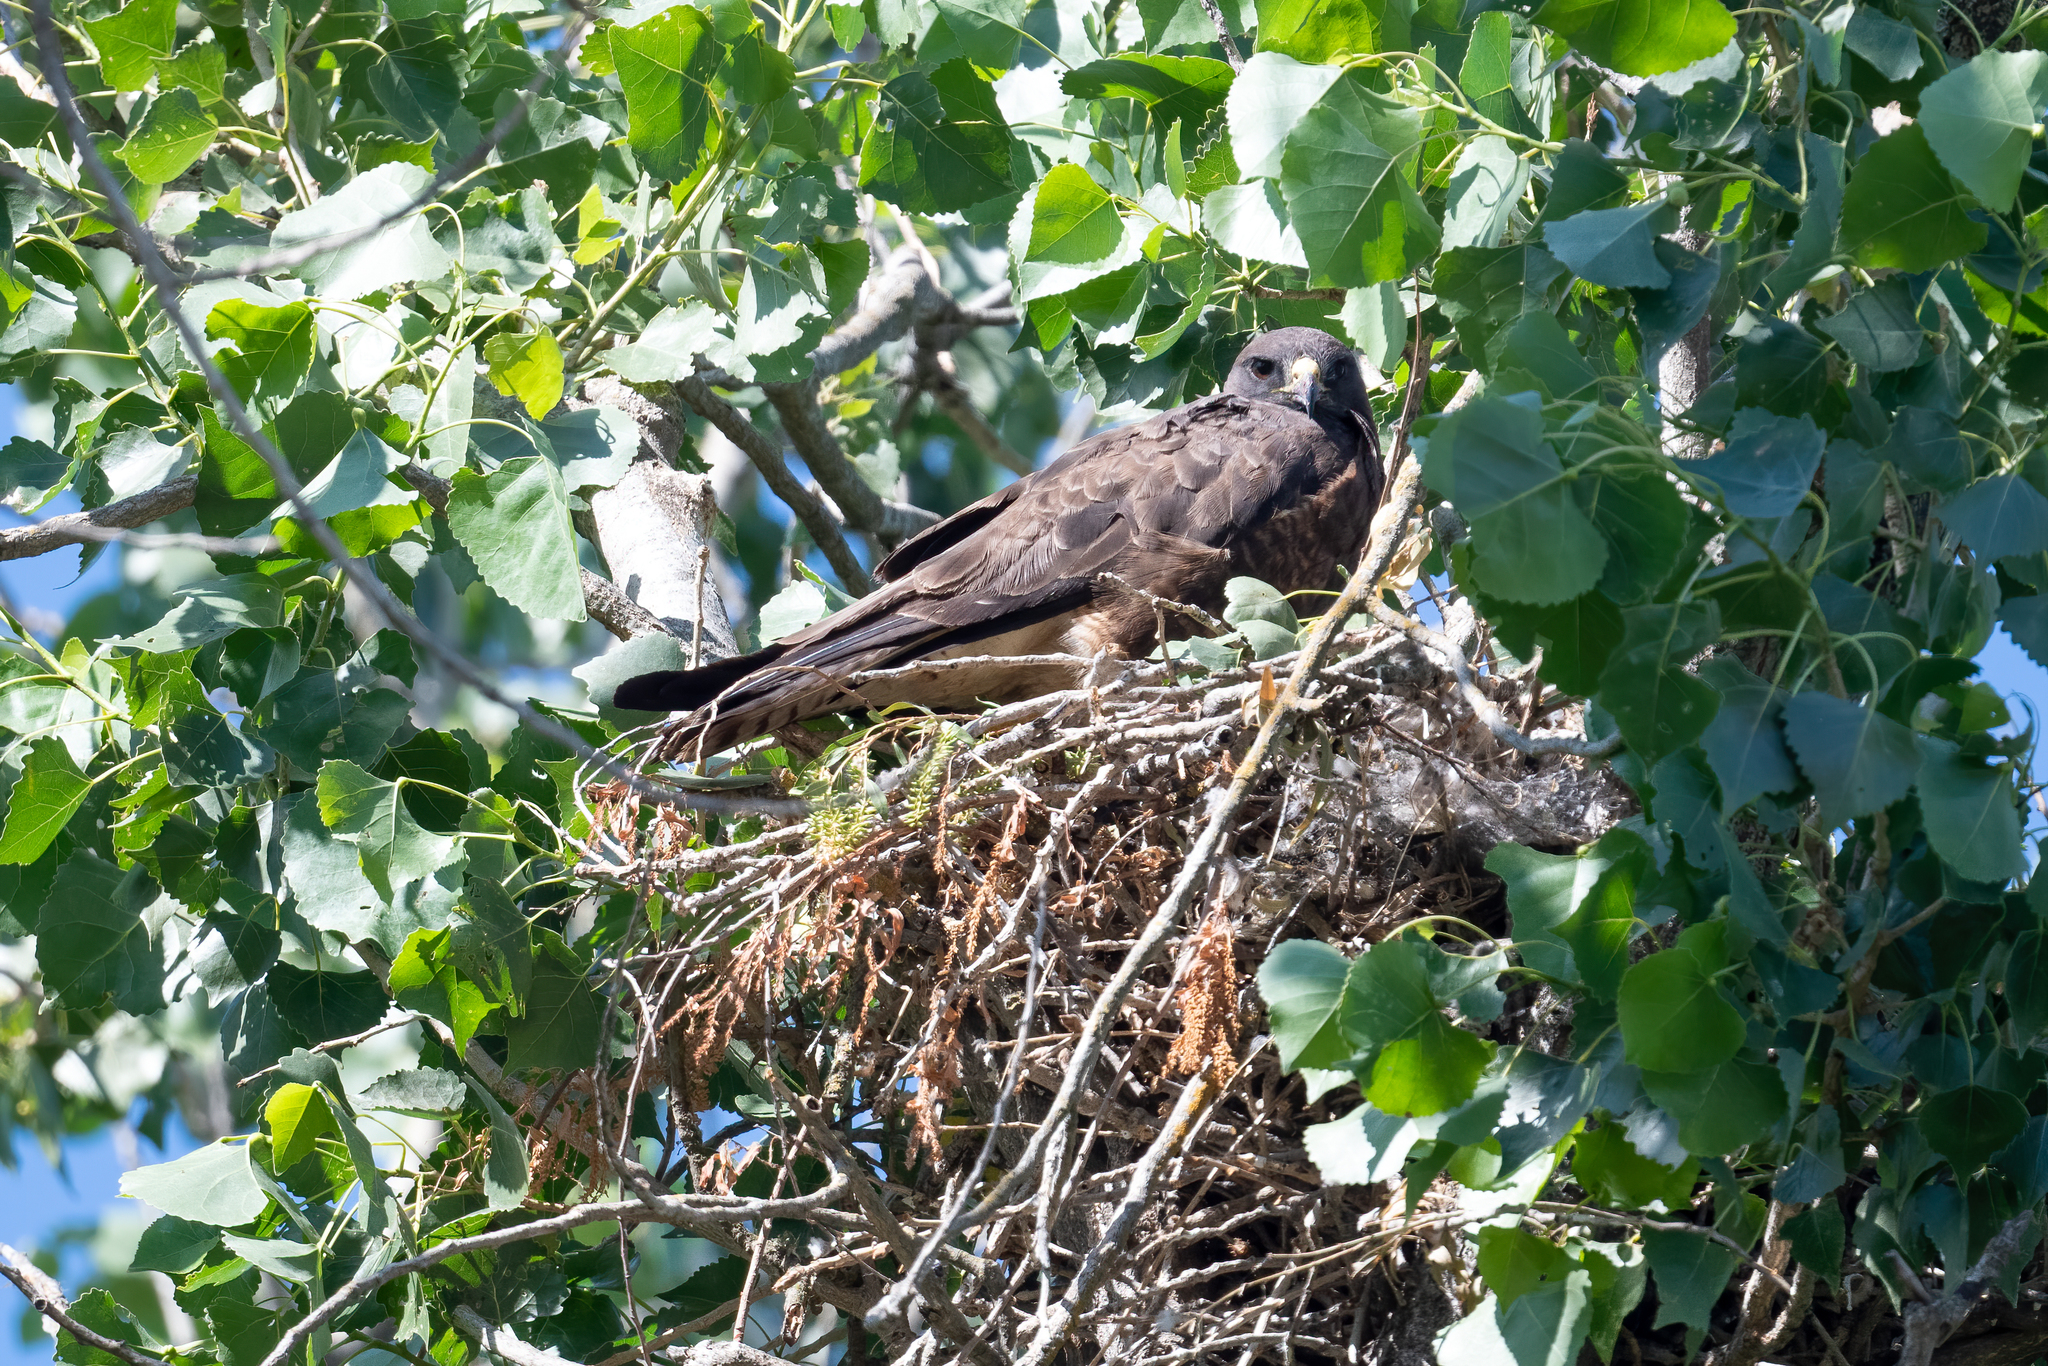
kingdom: Animalia
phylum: Chordata
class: Aves
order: Accipitriformes
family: Accipitridae
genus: Buteo
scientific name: Buteo swainsoni
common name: Swainson's hawk
